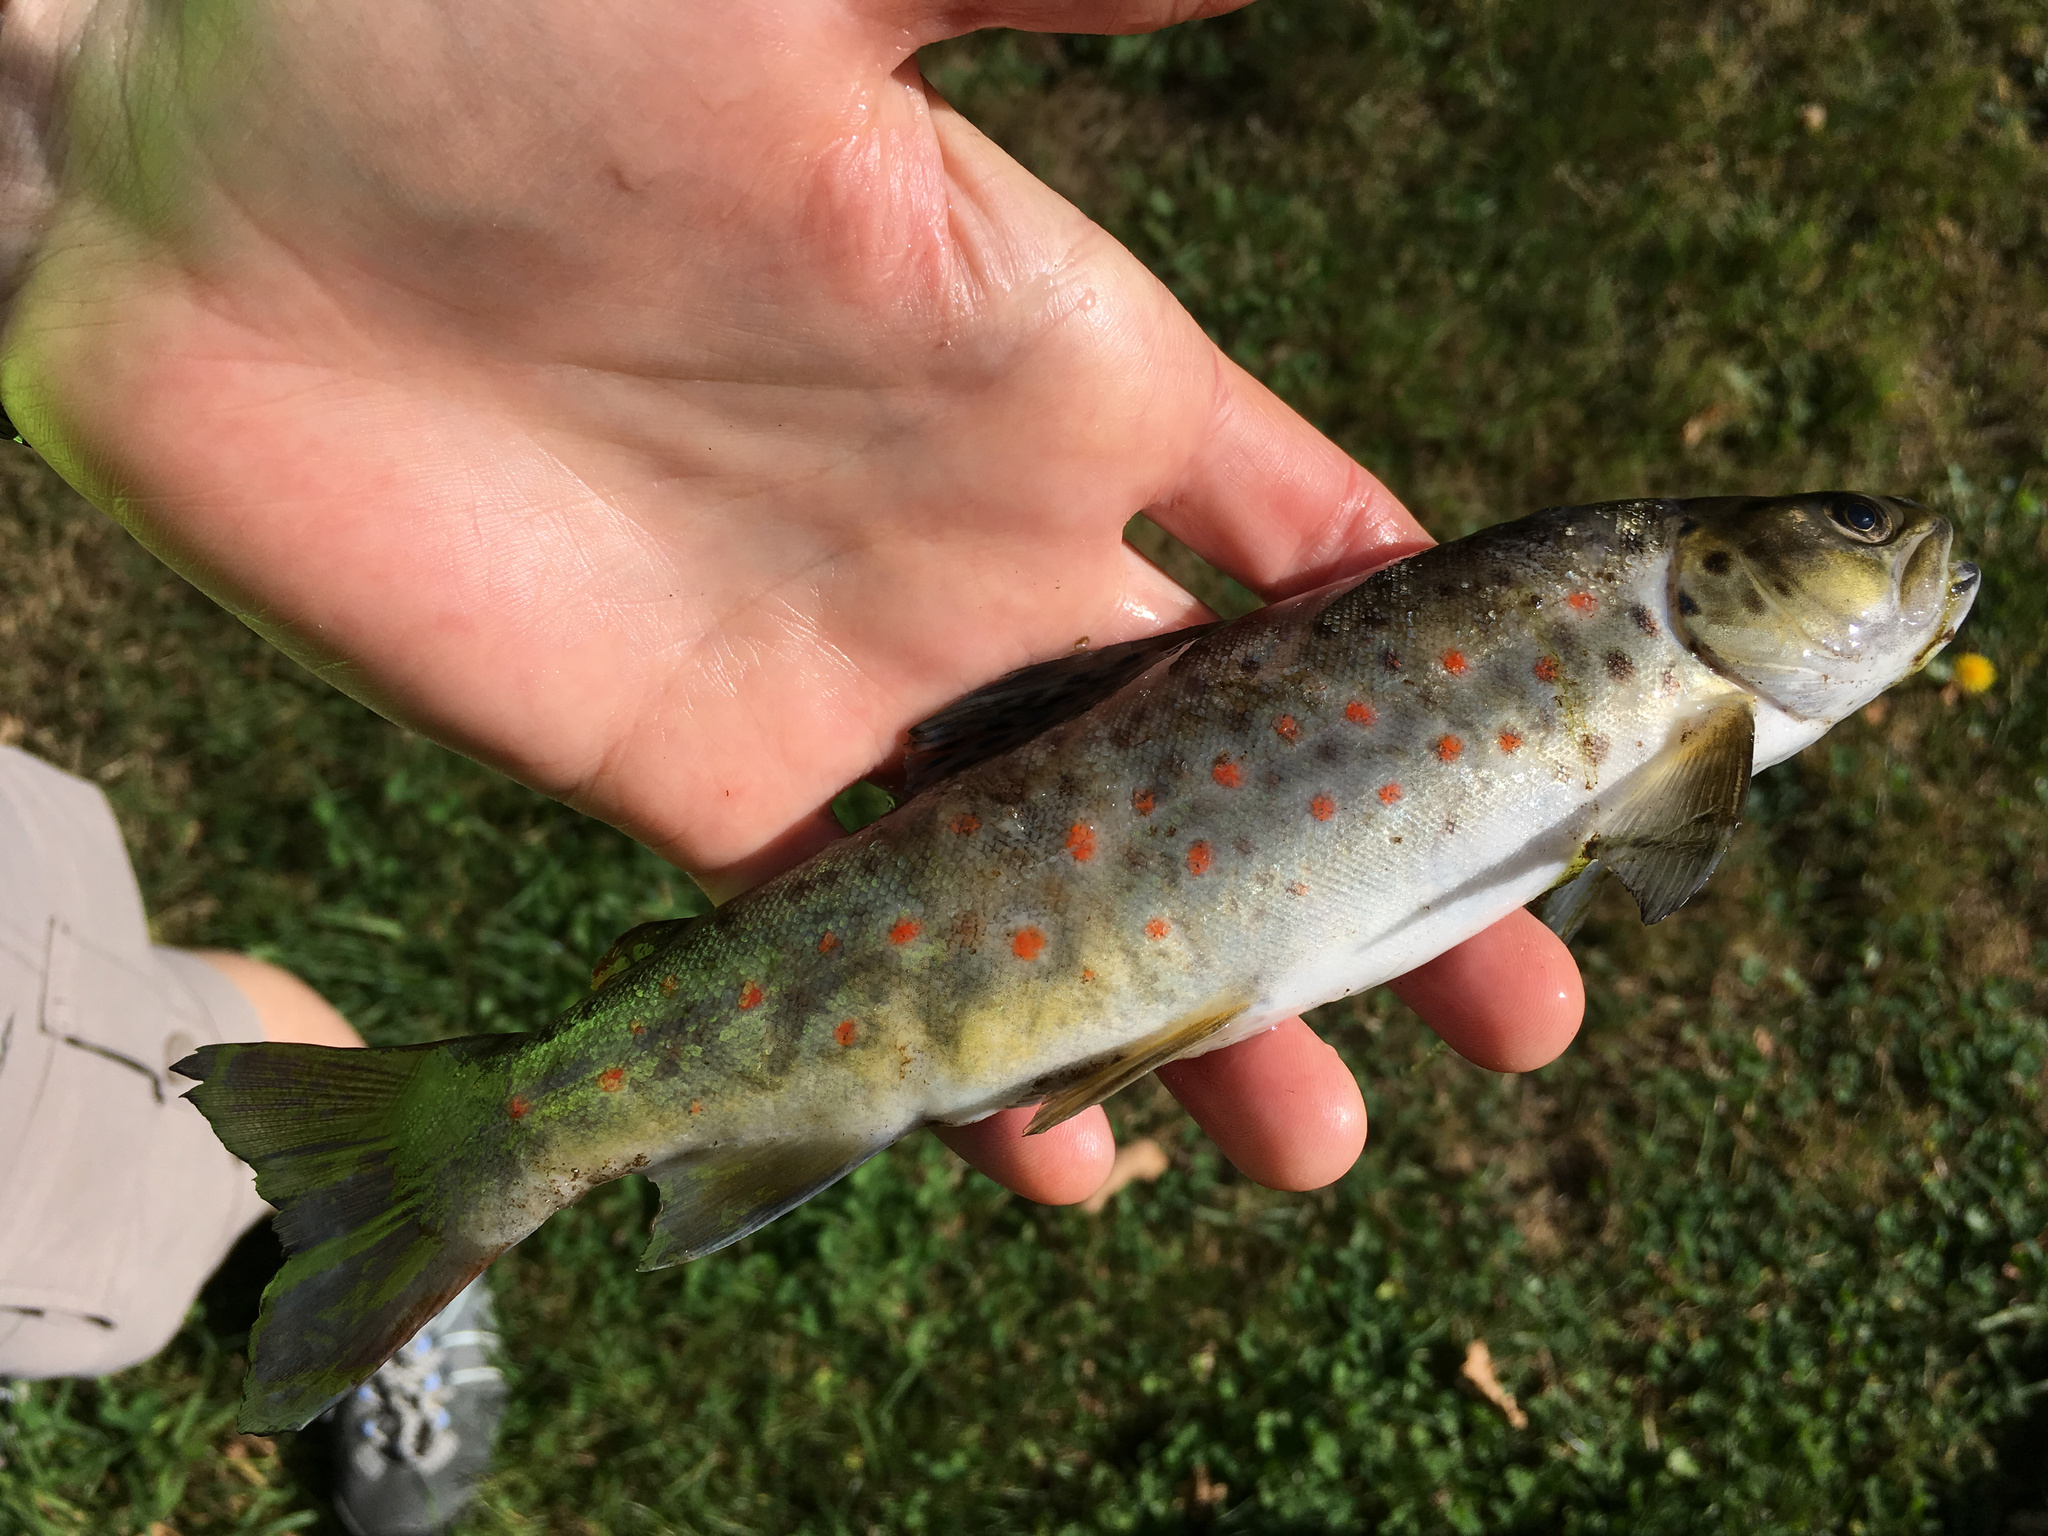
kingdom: Animalia
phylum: Chordata
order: Salmoniformes
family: Salmonidae
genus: Salmo
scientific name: Salmo trutta
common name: Brown trout
